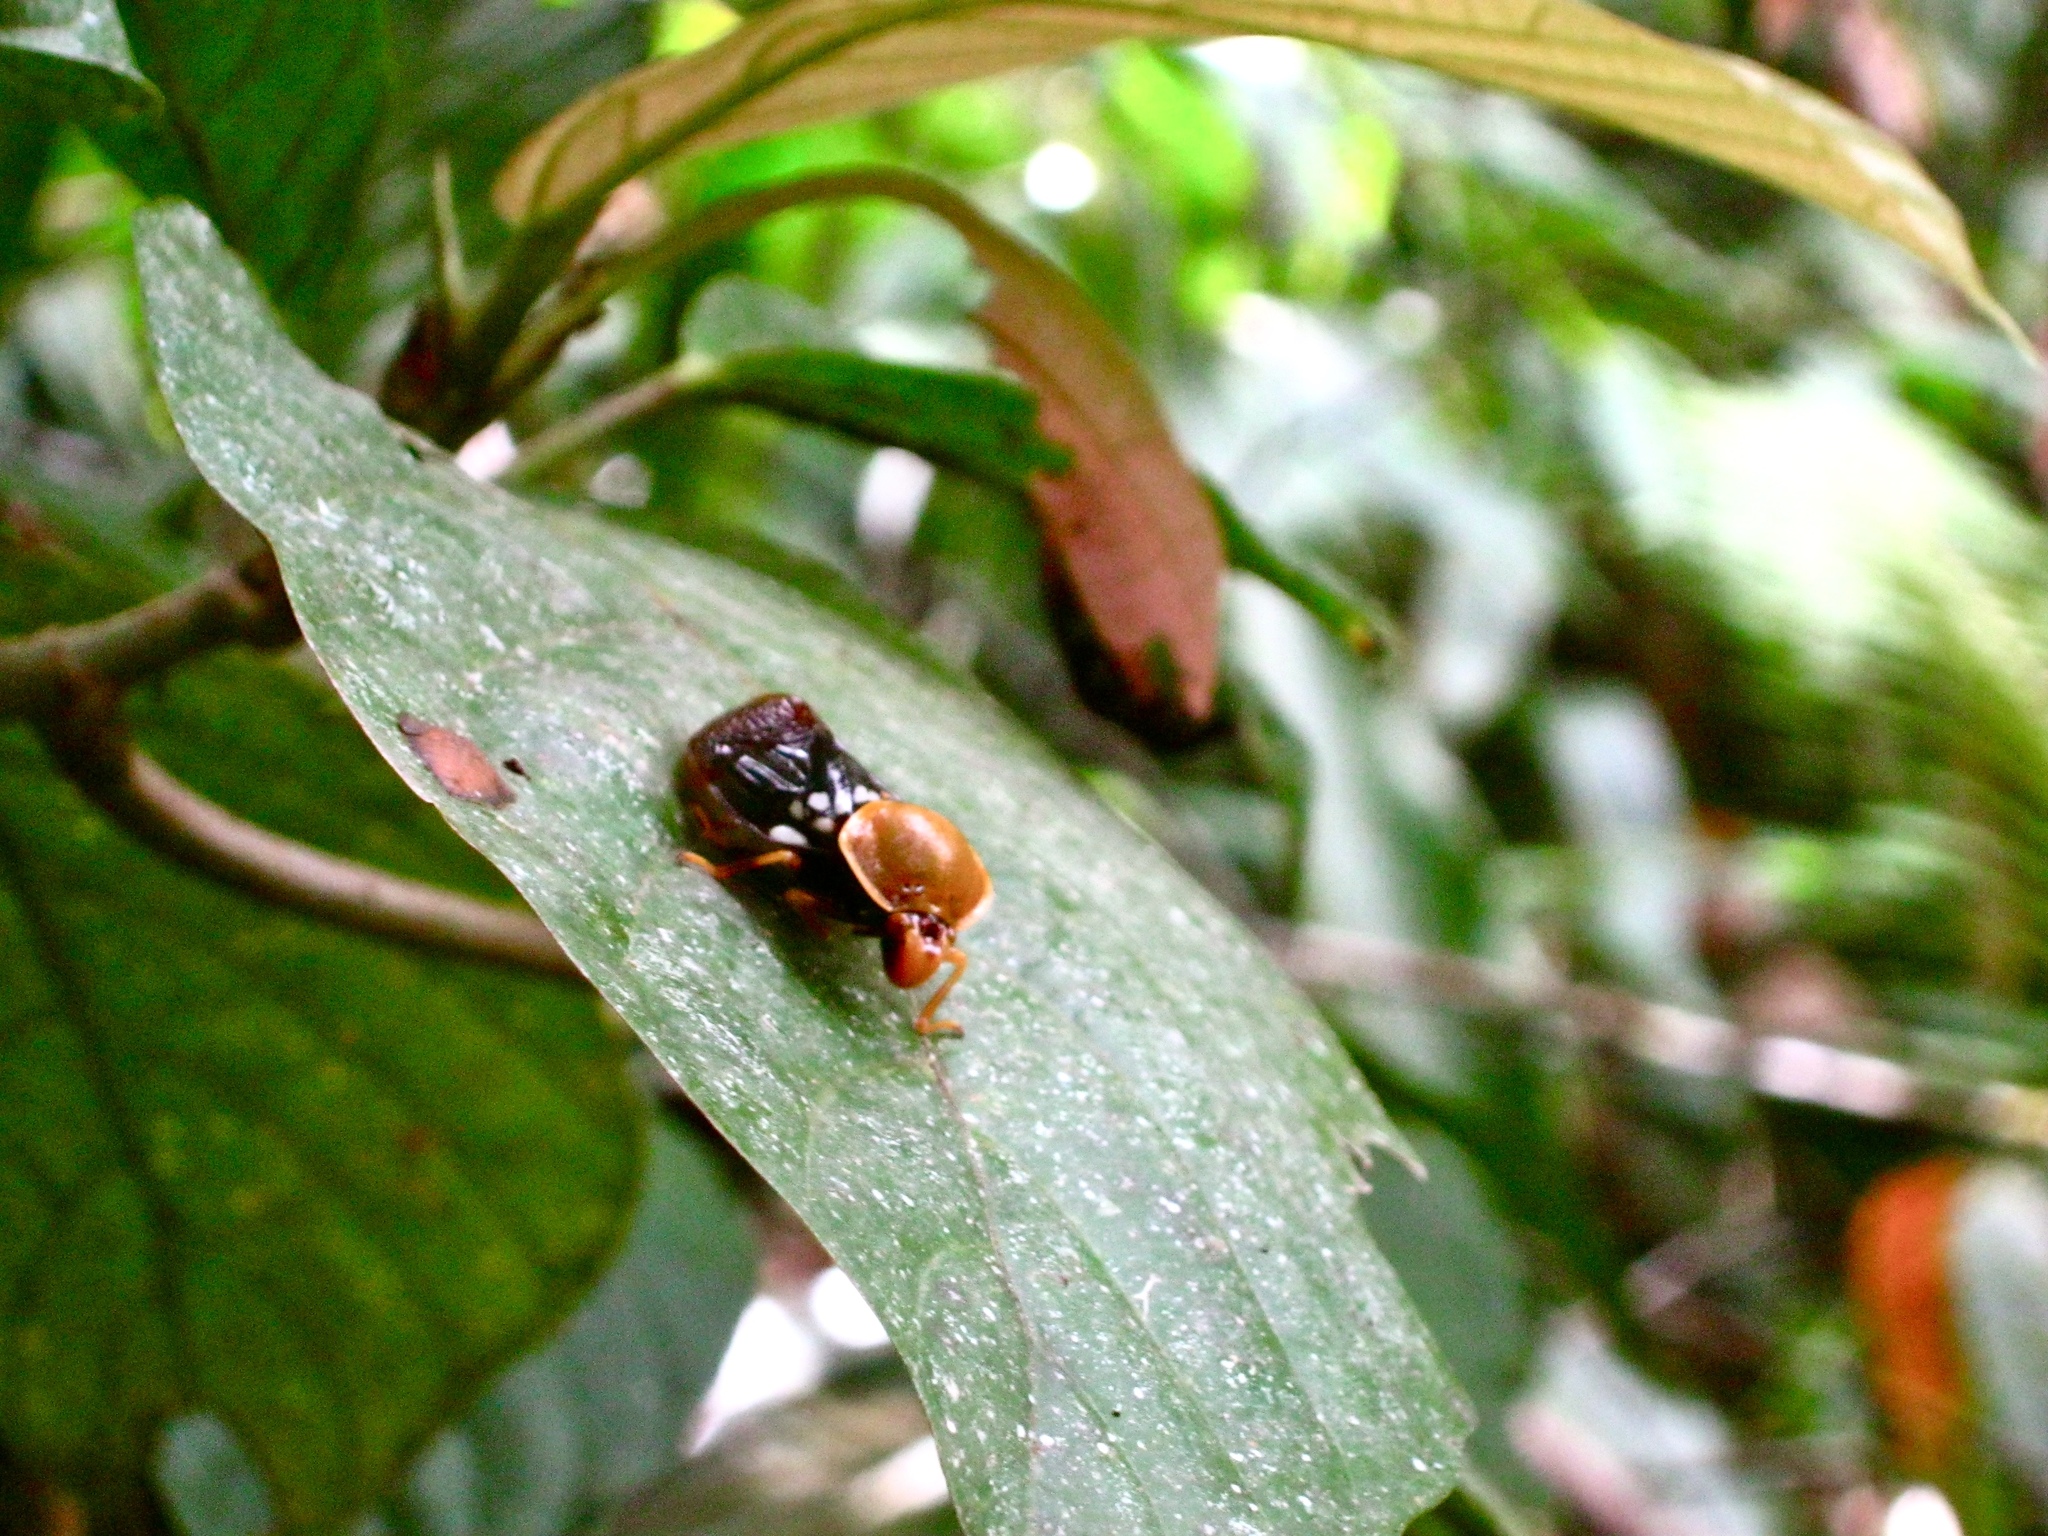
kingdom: Animalia
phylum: Arthropoda
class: Insecta
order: Hemiptera
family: Cercopidae
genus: Suracarta
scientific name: Suracarta tricolor
